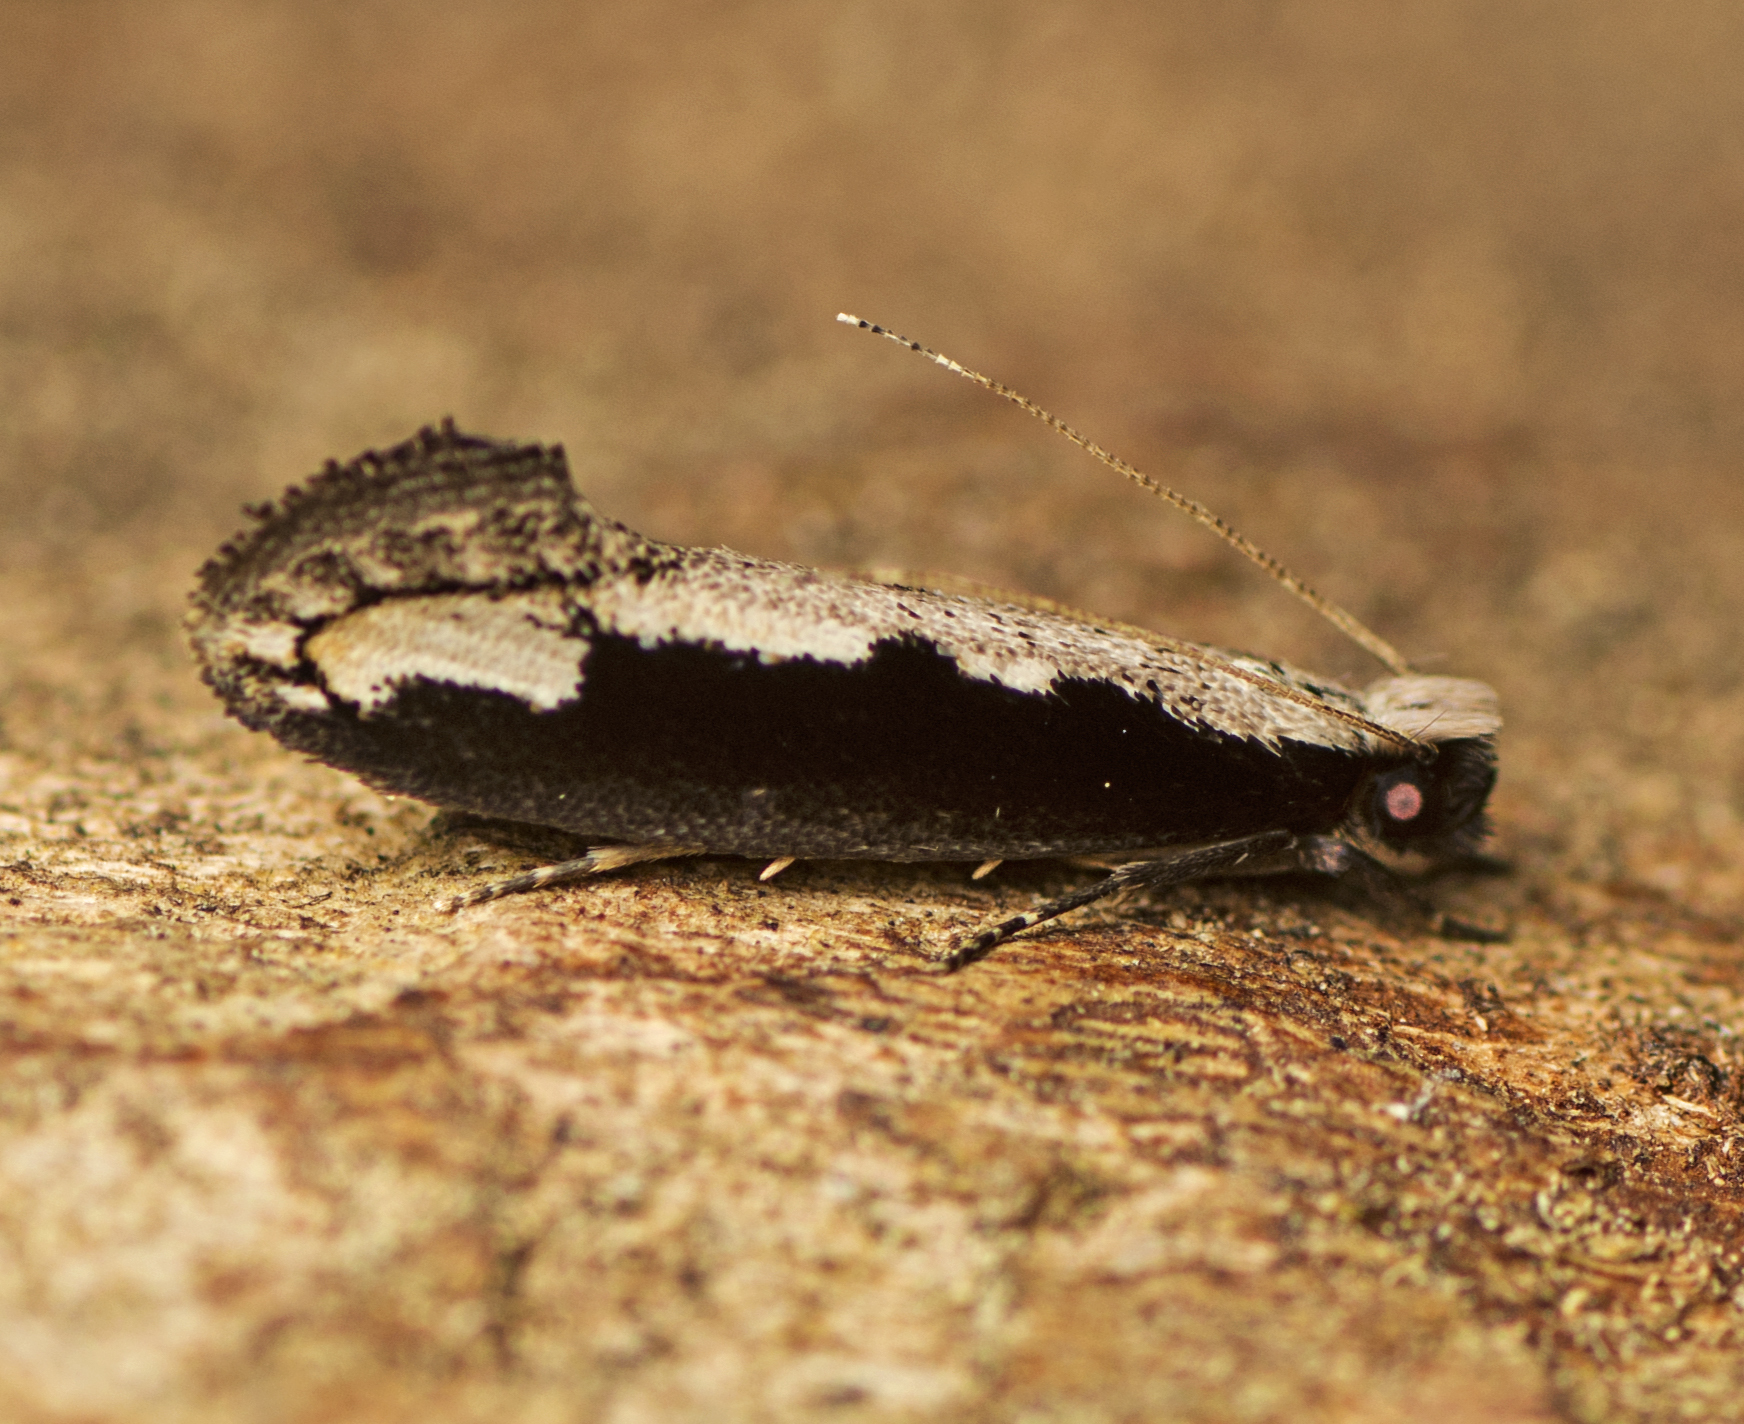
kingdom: Animalia
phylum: Arthropoda
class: Insecta
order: Lepidoptera
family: Tineidae
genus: Erechthias
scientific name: Erechthias diaphora
